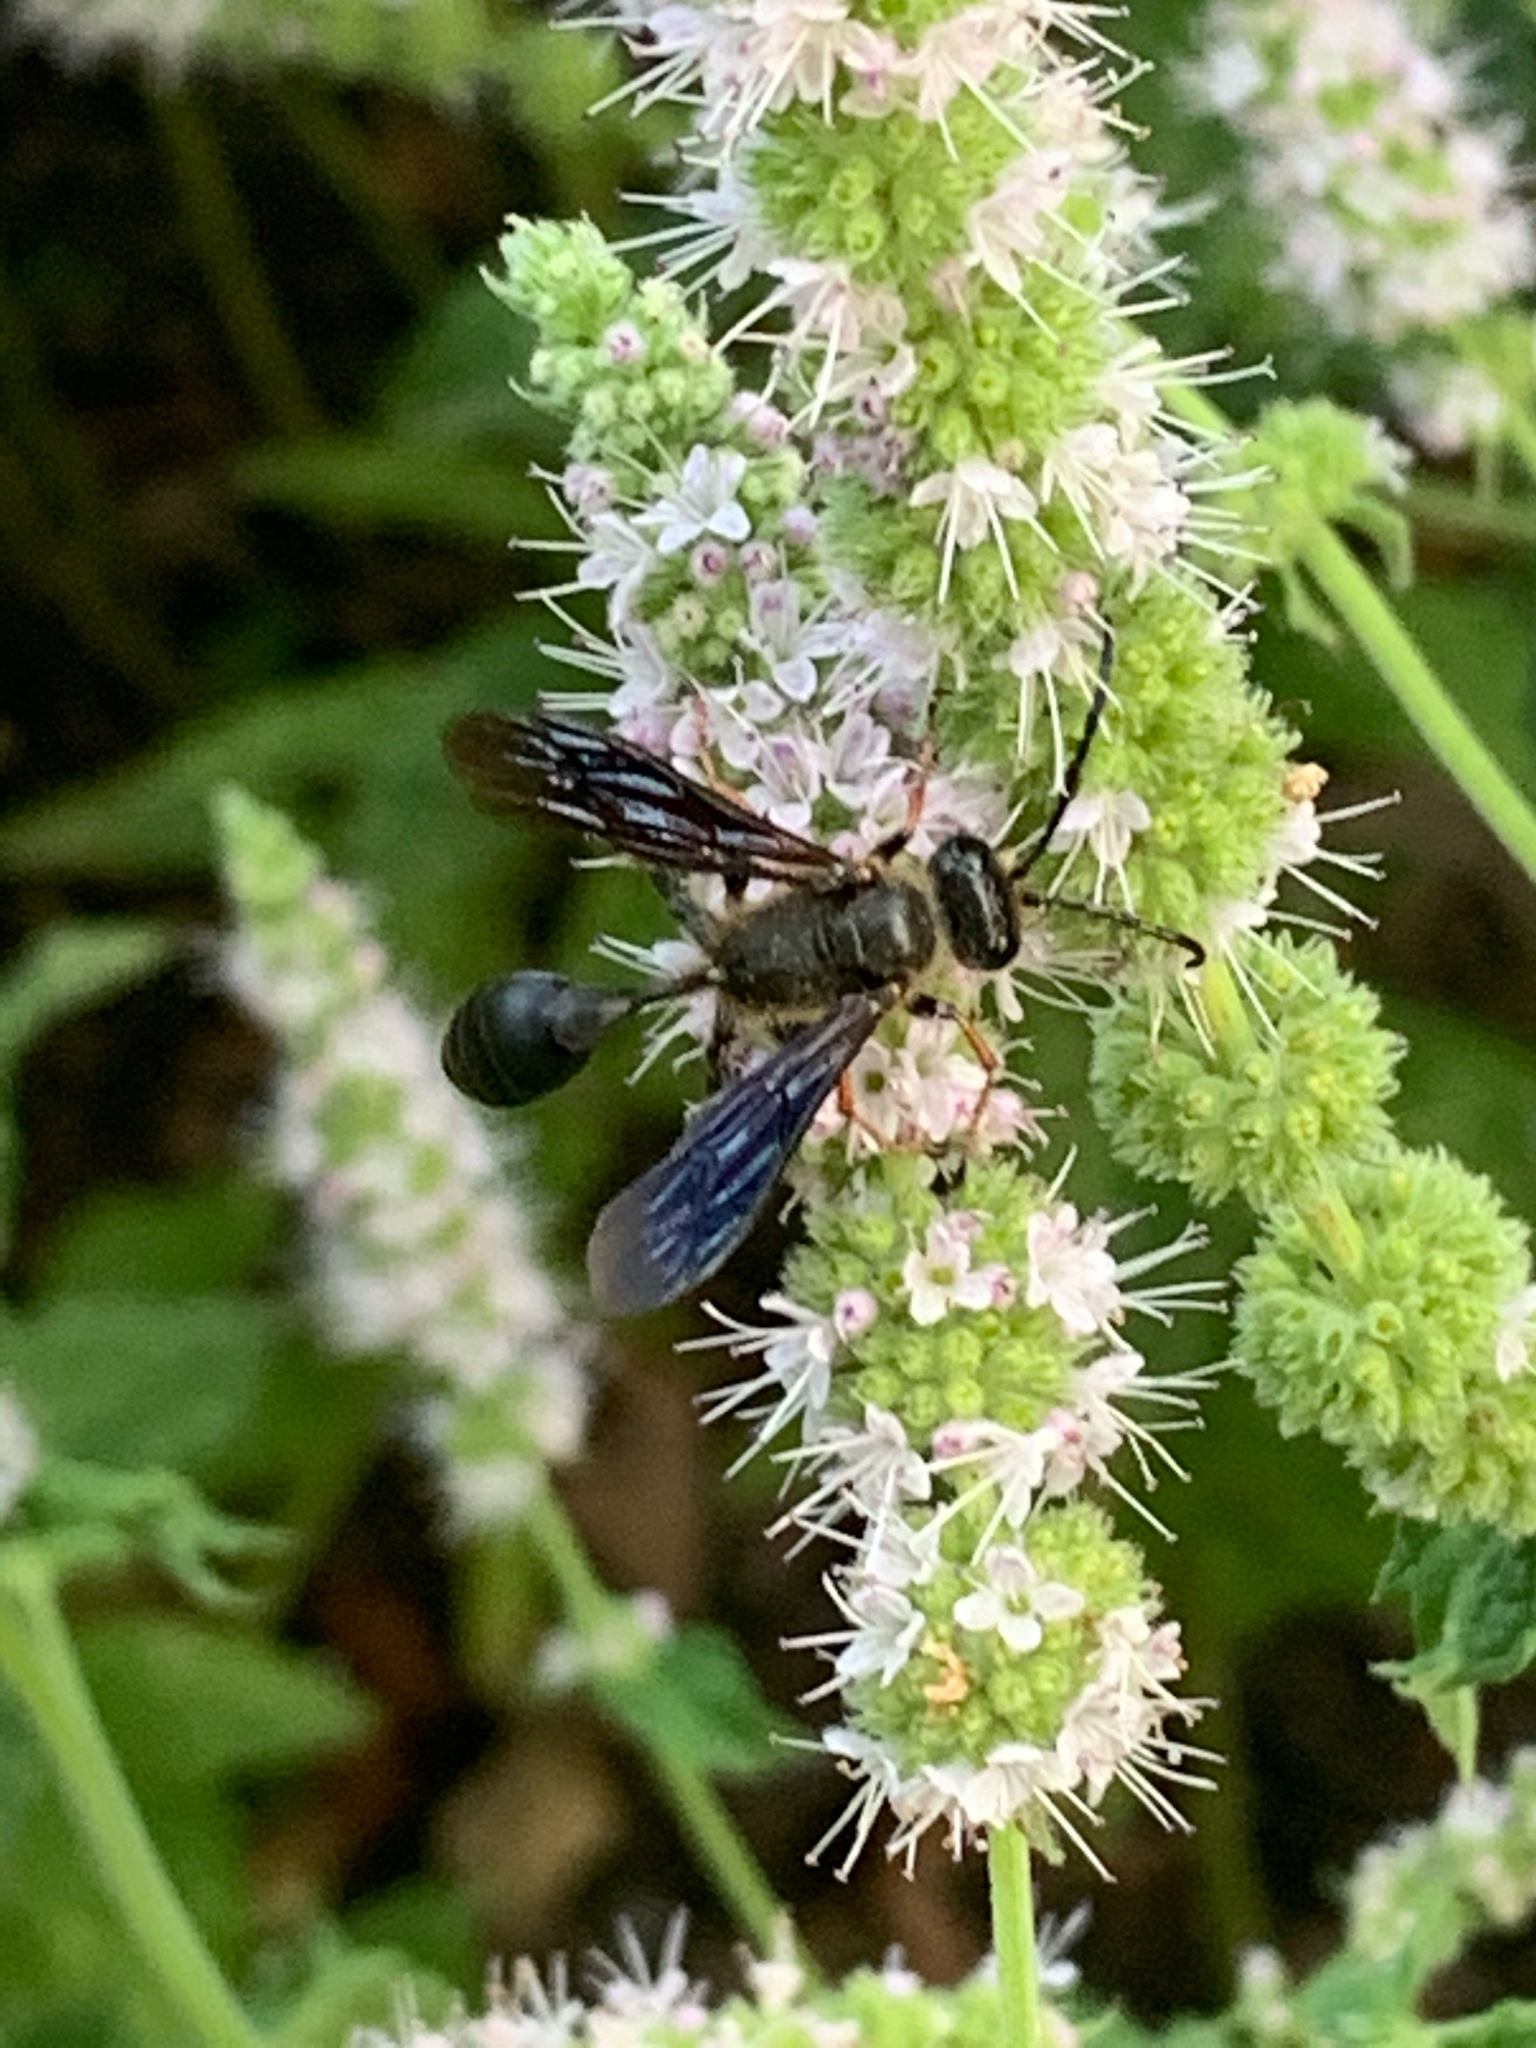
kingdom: Animalia
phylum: Arthropoda
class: Insecta
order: Hymenoptera
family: Sphecidae
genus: Isodontia
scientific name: Isodontia auripes
